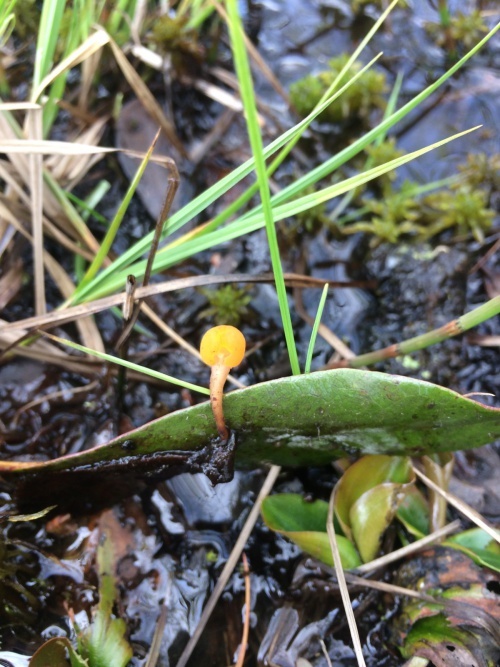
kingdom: Fungi
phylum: Ascomycota
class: Leotiomycetes
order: Helotiales
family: Cenangiaceae
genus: Mitrula
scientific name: Mitrula paludosa
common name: Bog beacon
